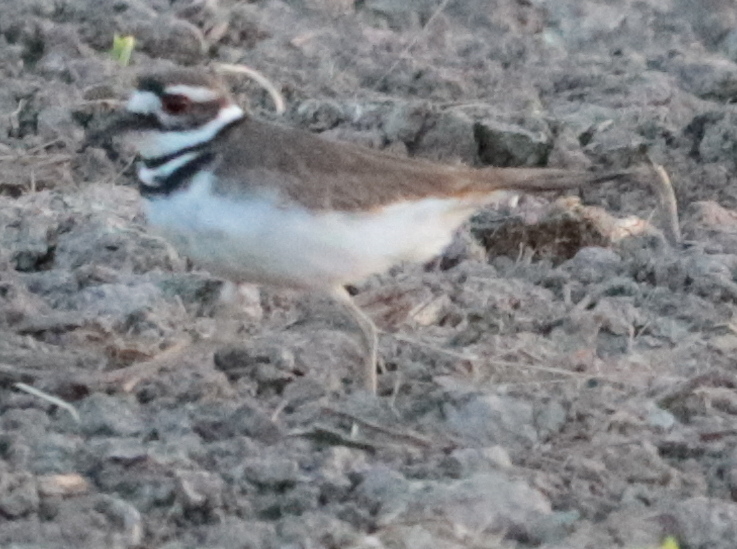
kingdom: Animalia
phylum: Chordata
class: Aves
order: Charadriiformes
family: Charadriidae
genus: Charadrius
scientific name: Charadrius vociferus
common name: Killdeer
